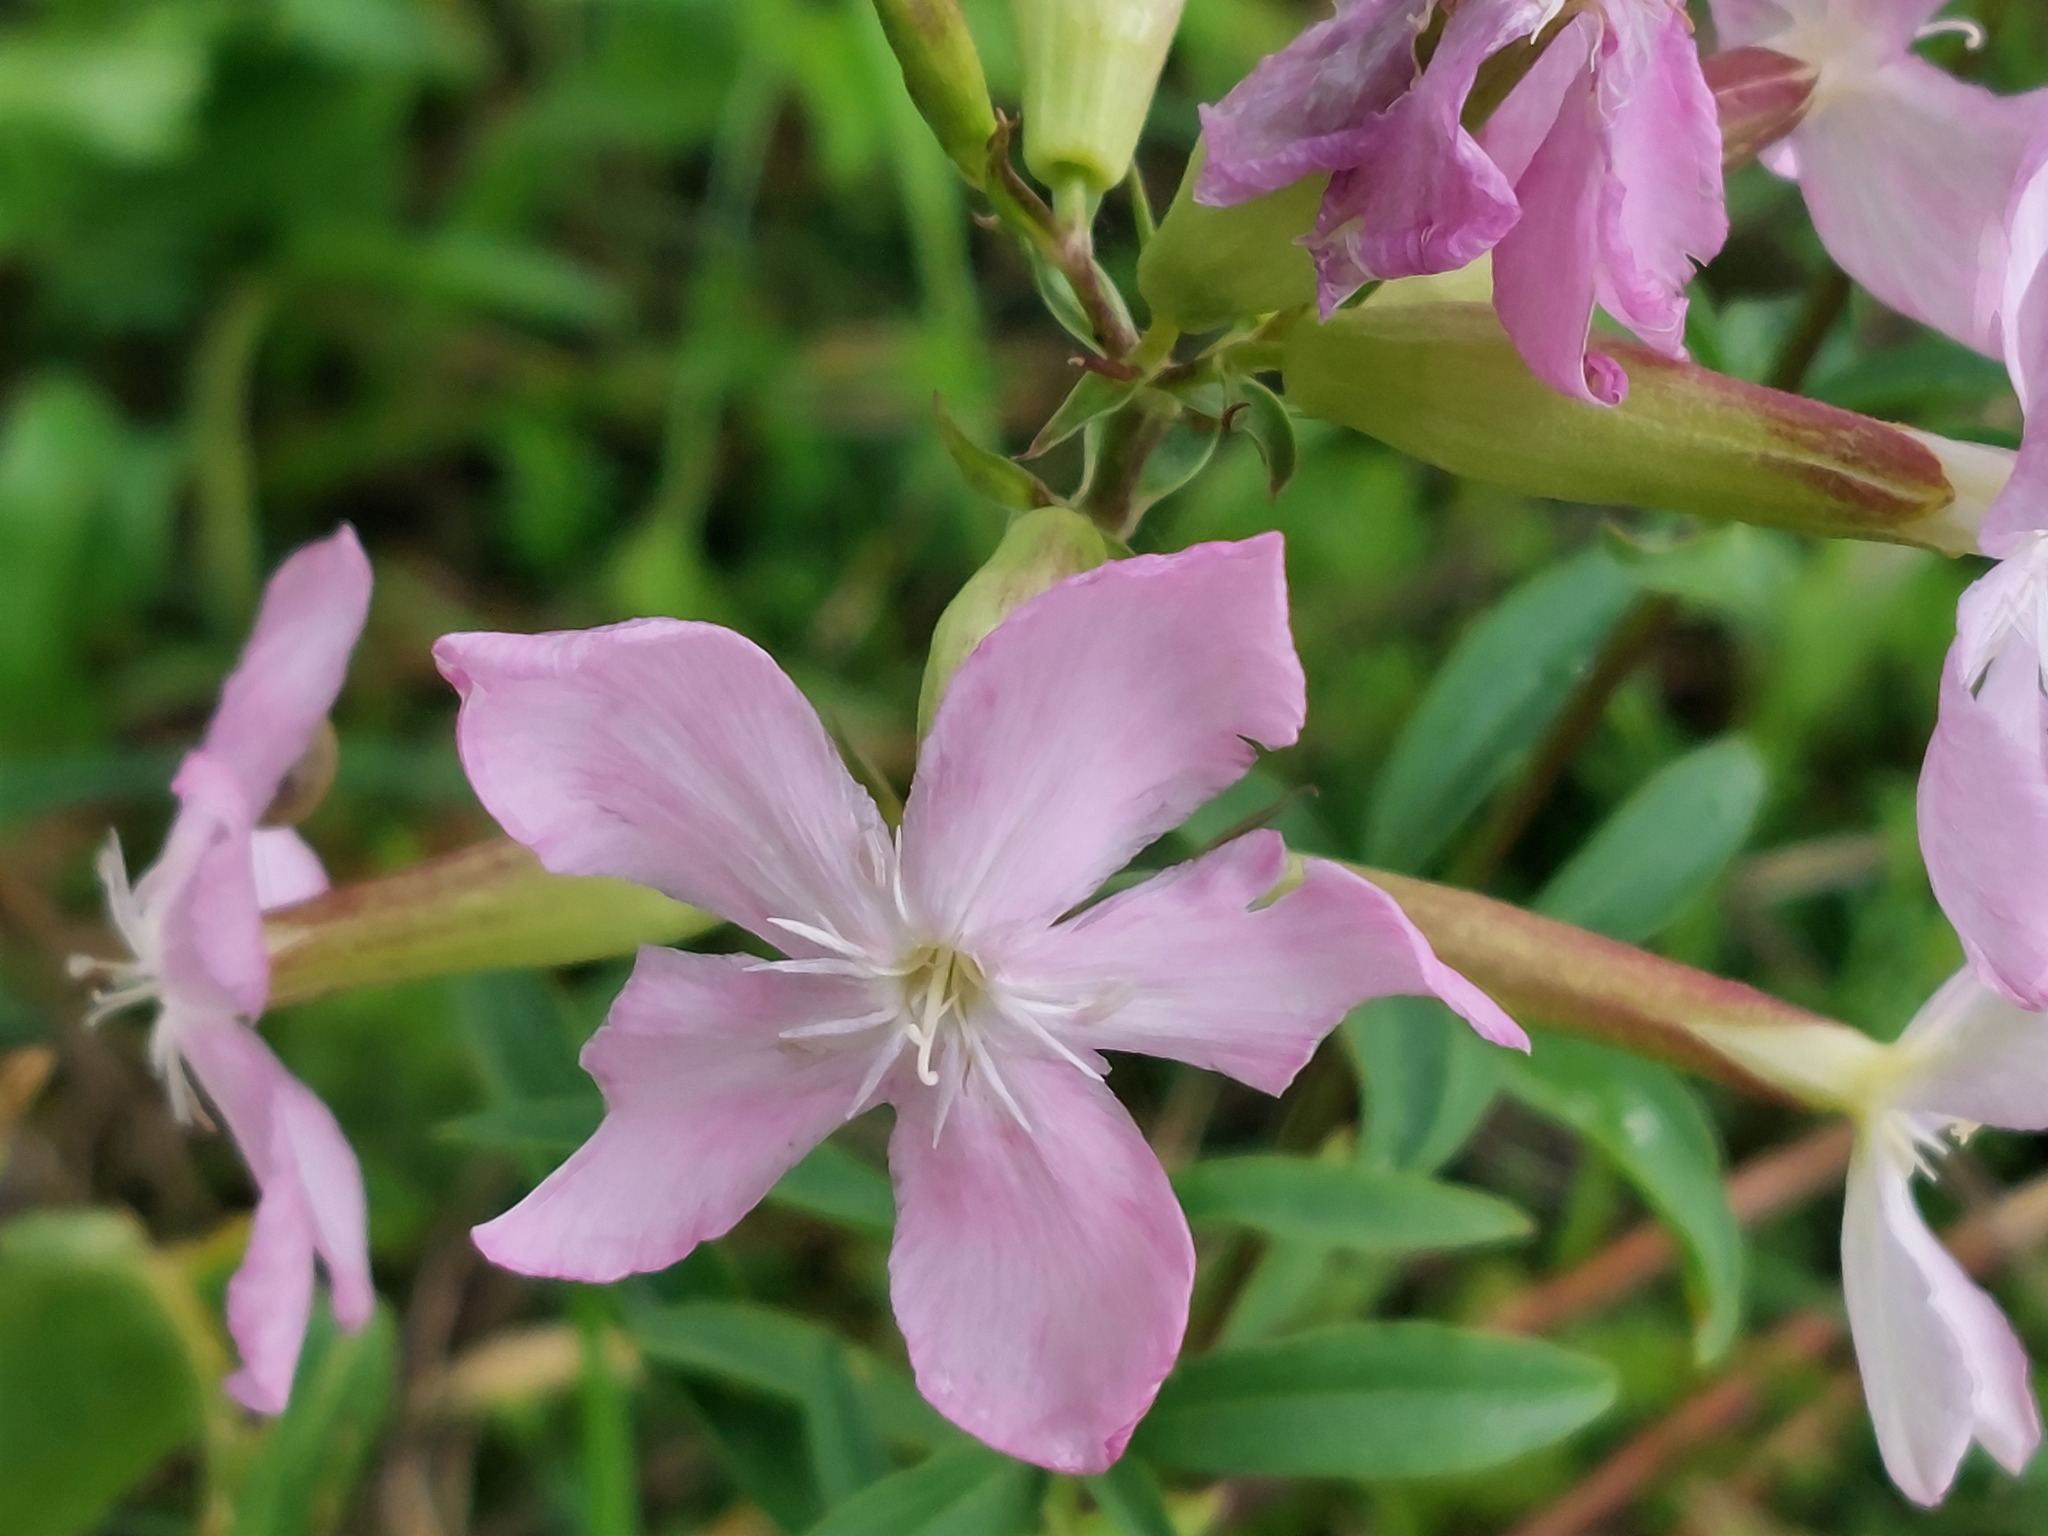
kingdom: Plantae
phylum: Tracheophyta
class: Magnoliopsida
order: Caryophyllales
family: Caryophyllaceae
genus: Saponaria
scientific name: Saponaria officinalis
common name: Soapwort
